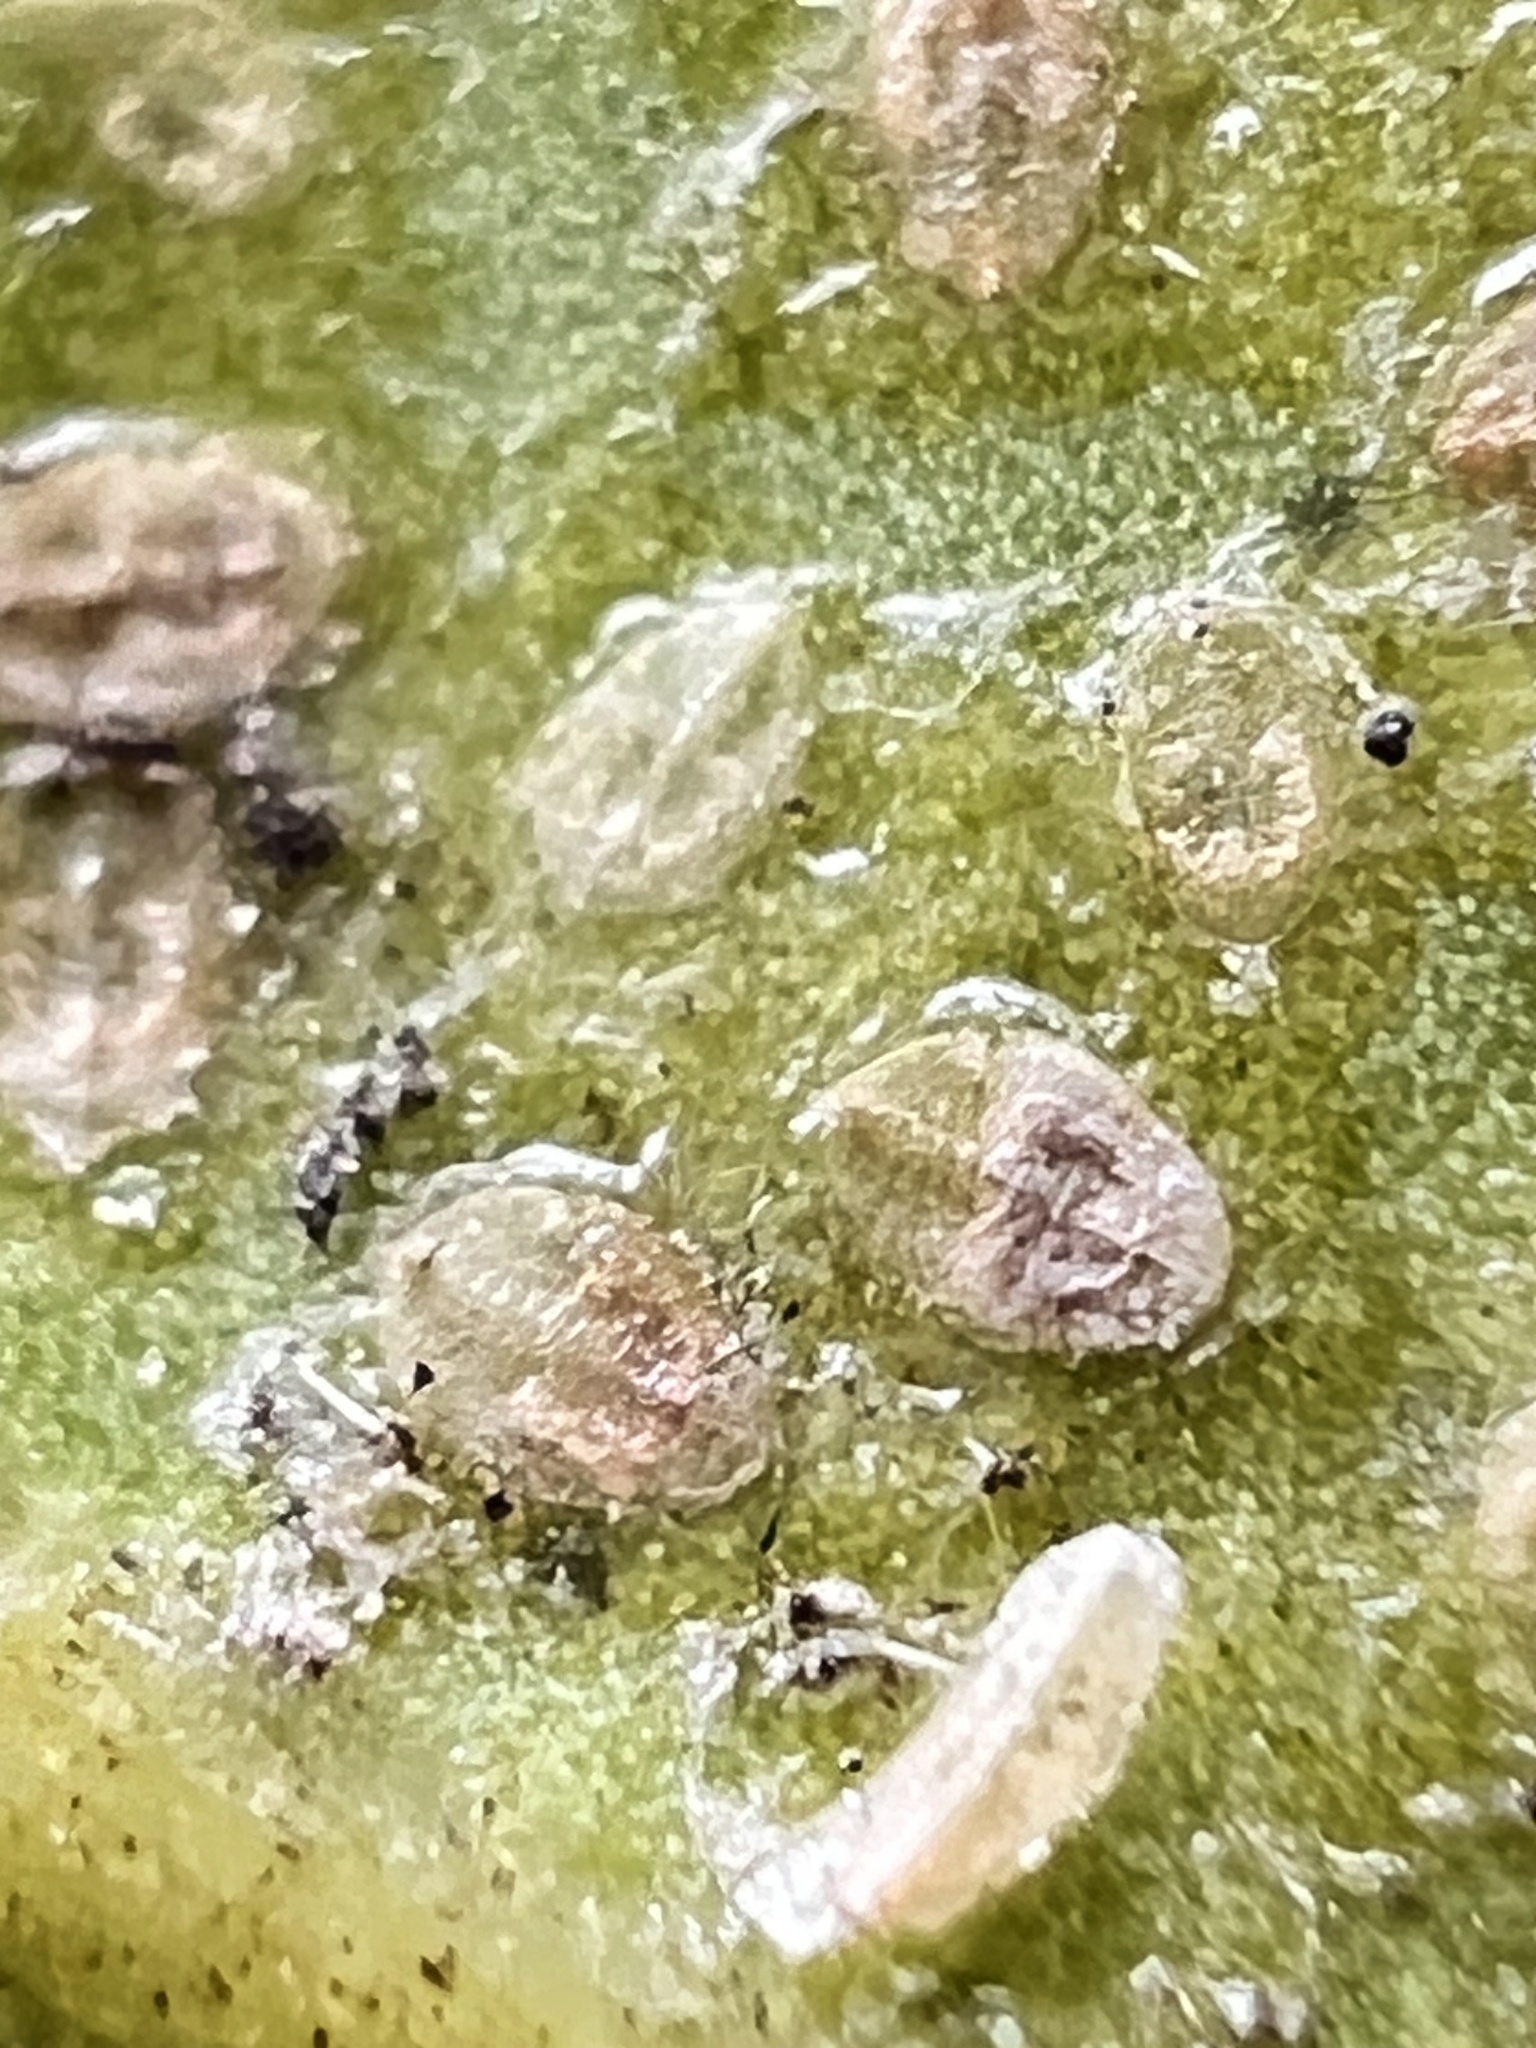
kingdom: Animalia
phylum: Arthropoda
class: Insecta
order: Hemiptera
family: Aleyrodidae
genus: Orchamoplatus
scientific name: Orchamoplatus citri
